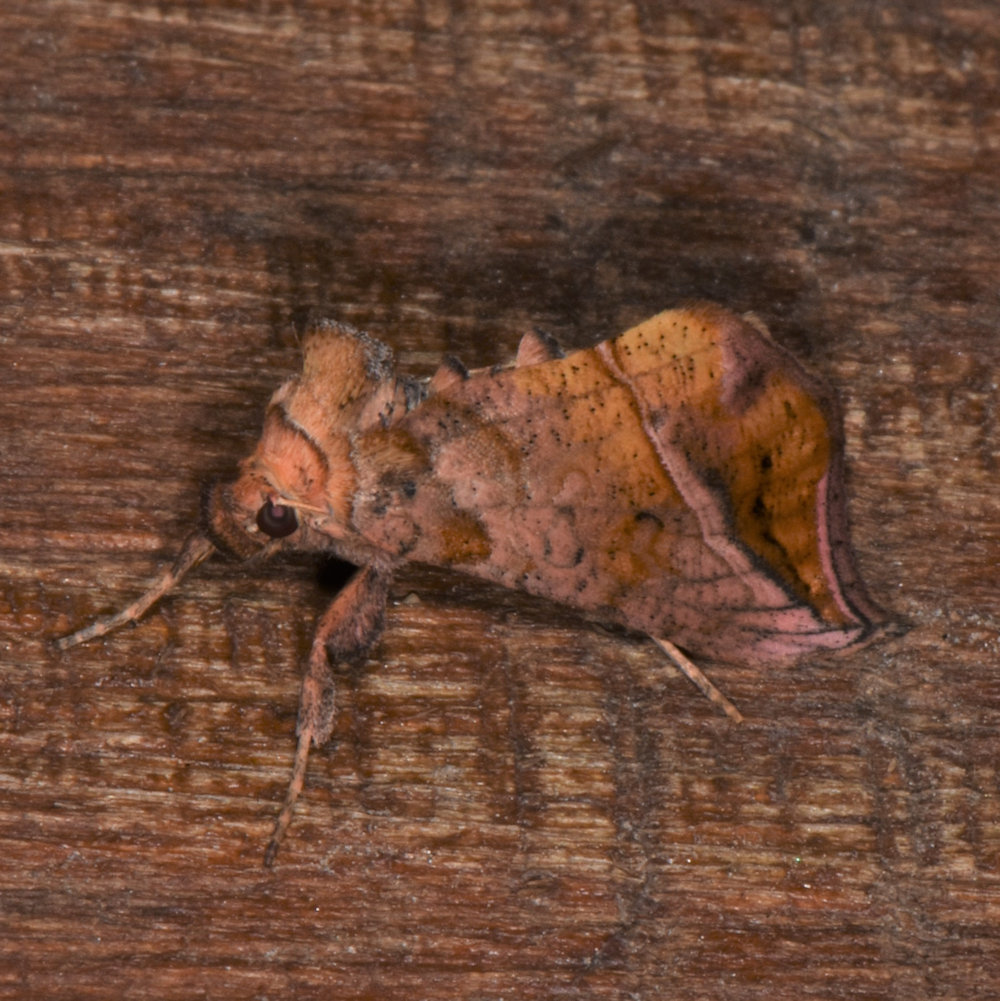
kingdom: Animalia
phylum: Arthropoda
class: Insecta
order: Lepidoptera
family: Noctuidae
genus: Pseudeva
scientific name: Pseudeva purpurigera
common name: Straight-lined looper moth
